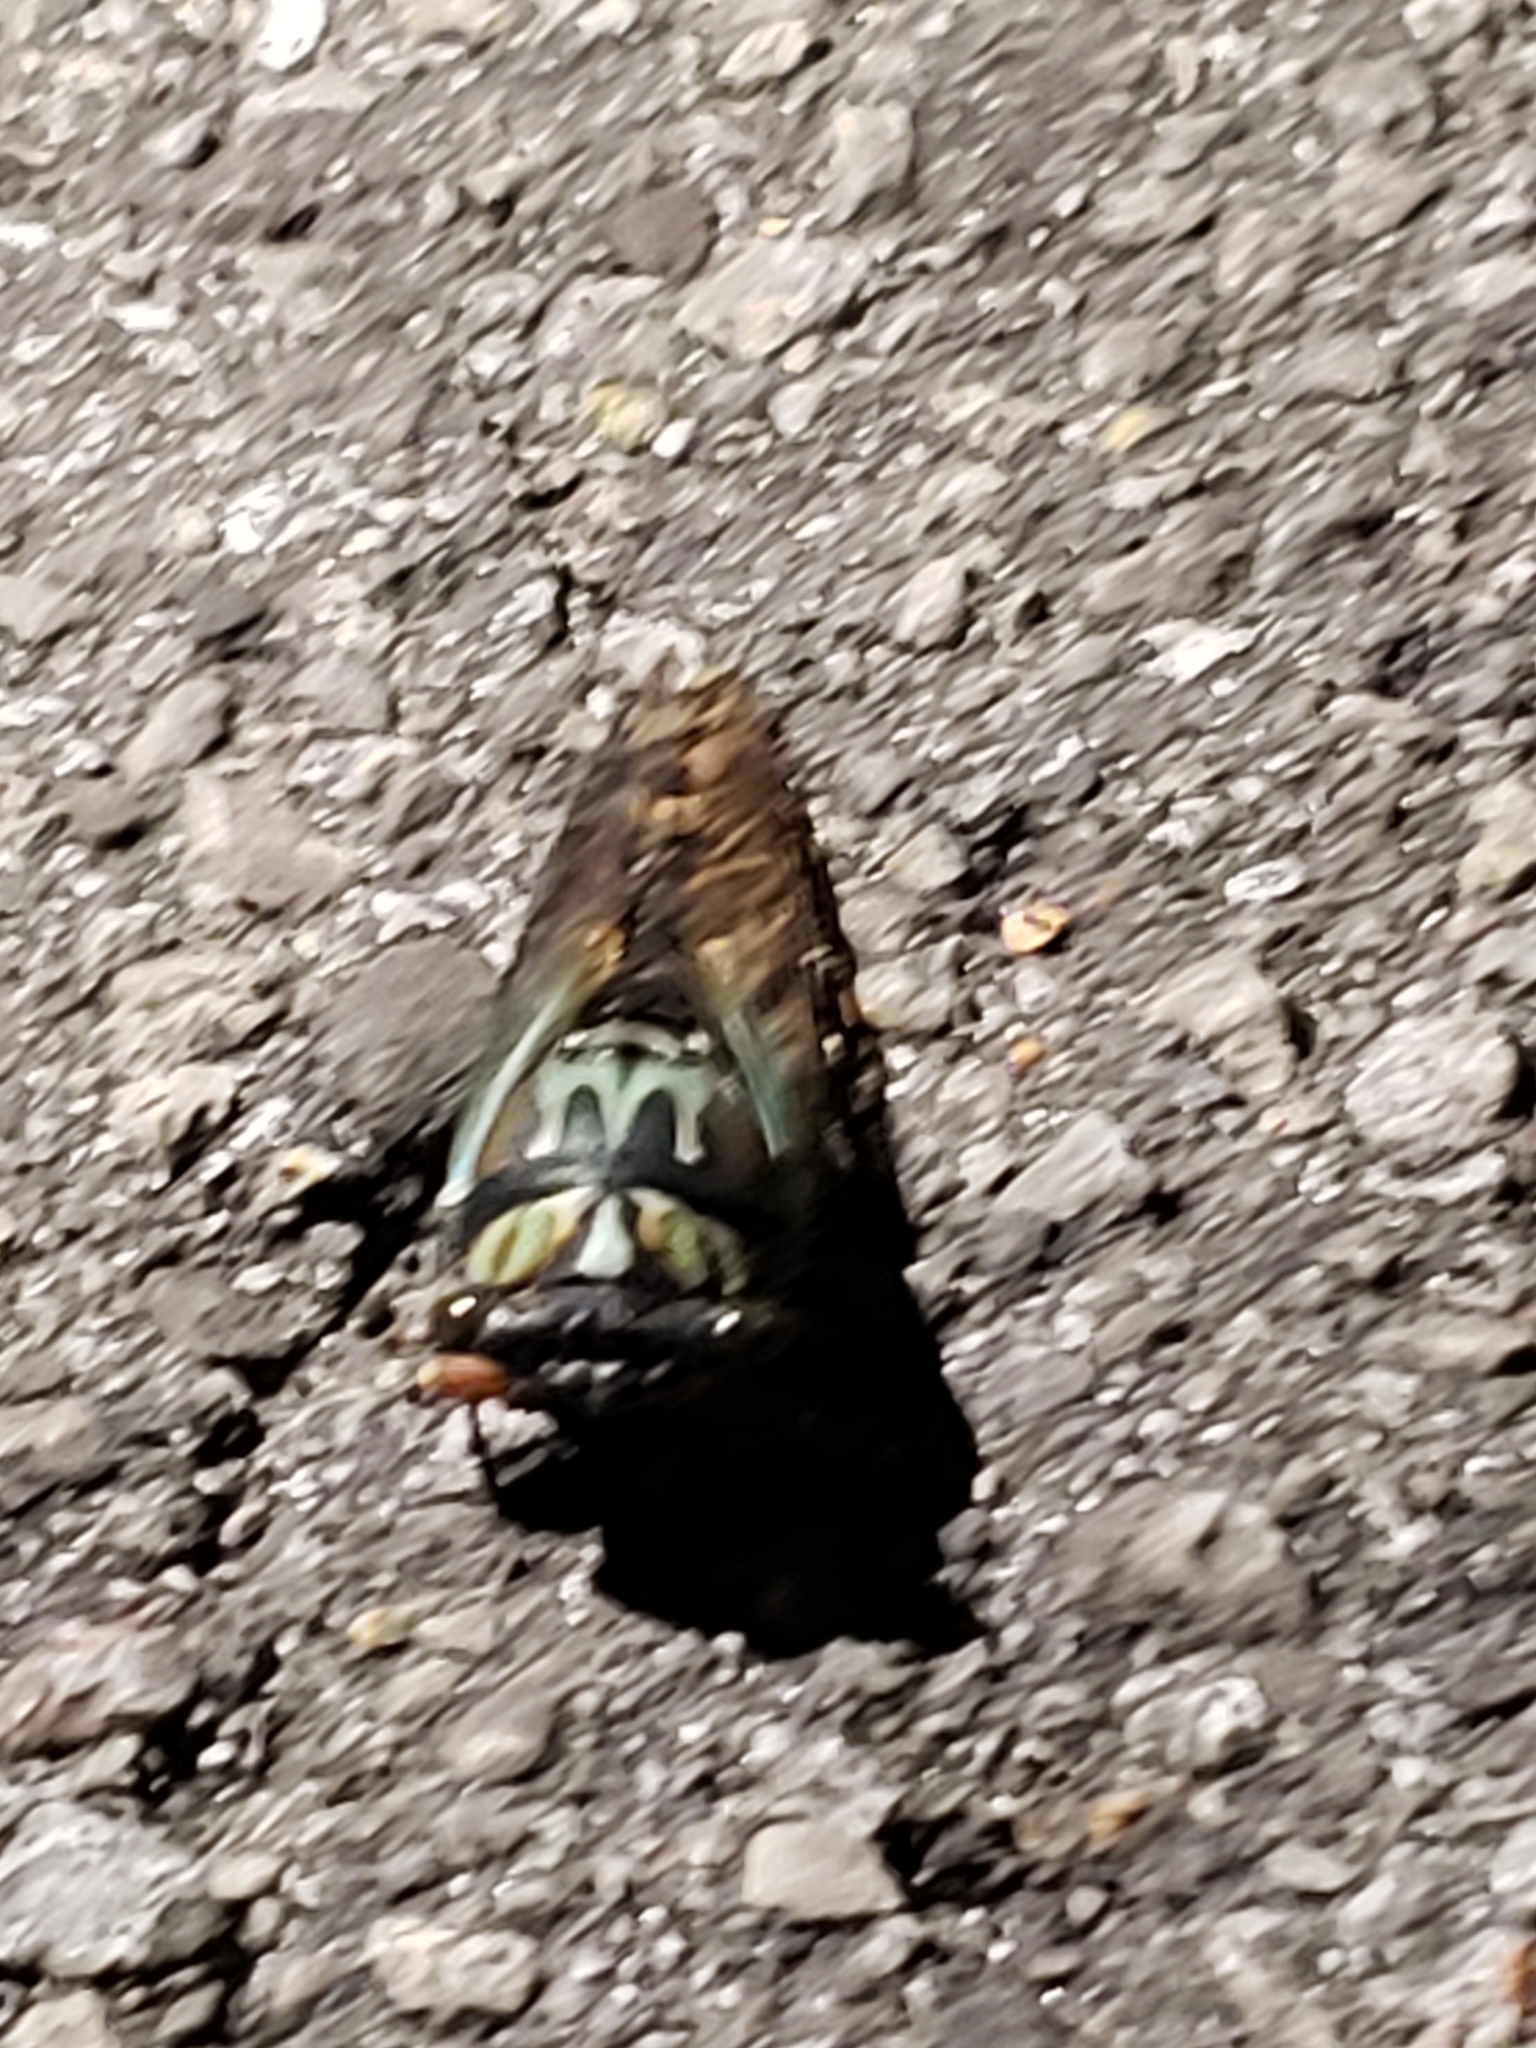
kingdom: Animalia
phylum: Arthropoda
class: Insecta
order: Hemiptera
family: Cicadidae
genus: Neotibicen
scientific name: Neotibicen lyricen
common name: Lyric cicada
